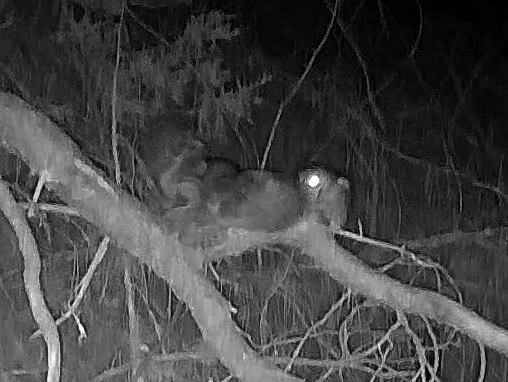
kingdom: Animalia
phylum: Chordata
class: Aves
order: Strigiformes
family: Strigidae
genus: Megascops
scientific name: Megascops asio
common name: Eastern screech-owl
